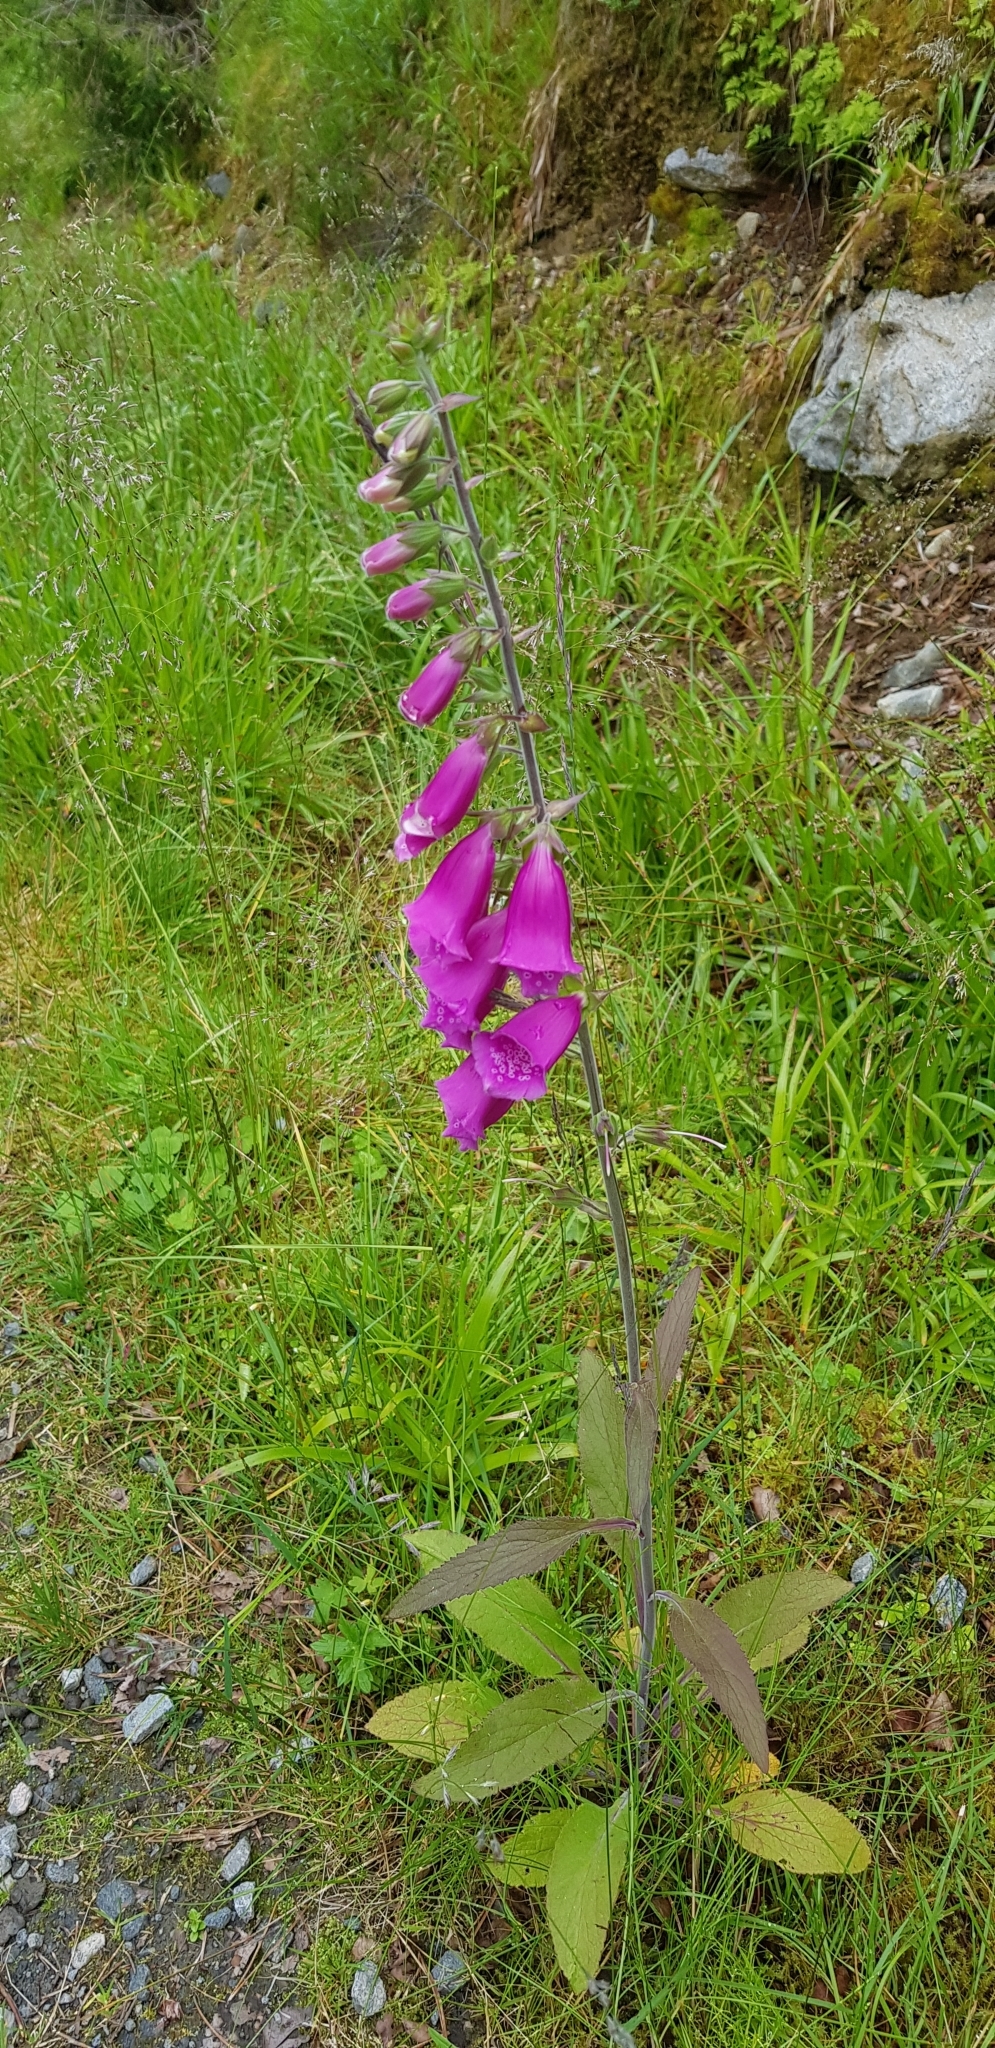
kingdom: Plantae
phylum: Tracheophyta
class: Magnoliopsida
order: Lamiales
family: Plantaginaceae
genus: Digitalis
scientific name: Digitalis purpurea
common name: Foxglove
